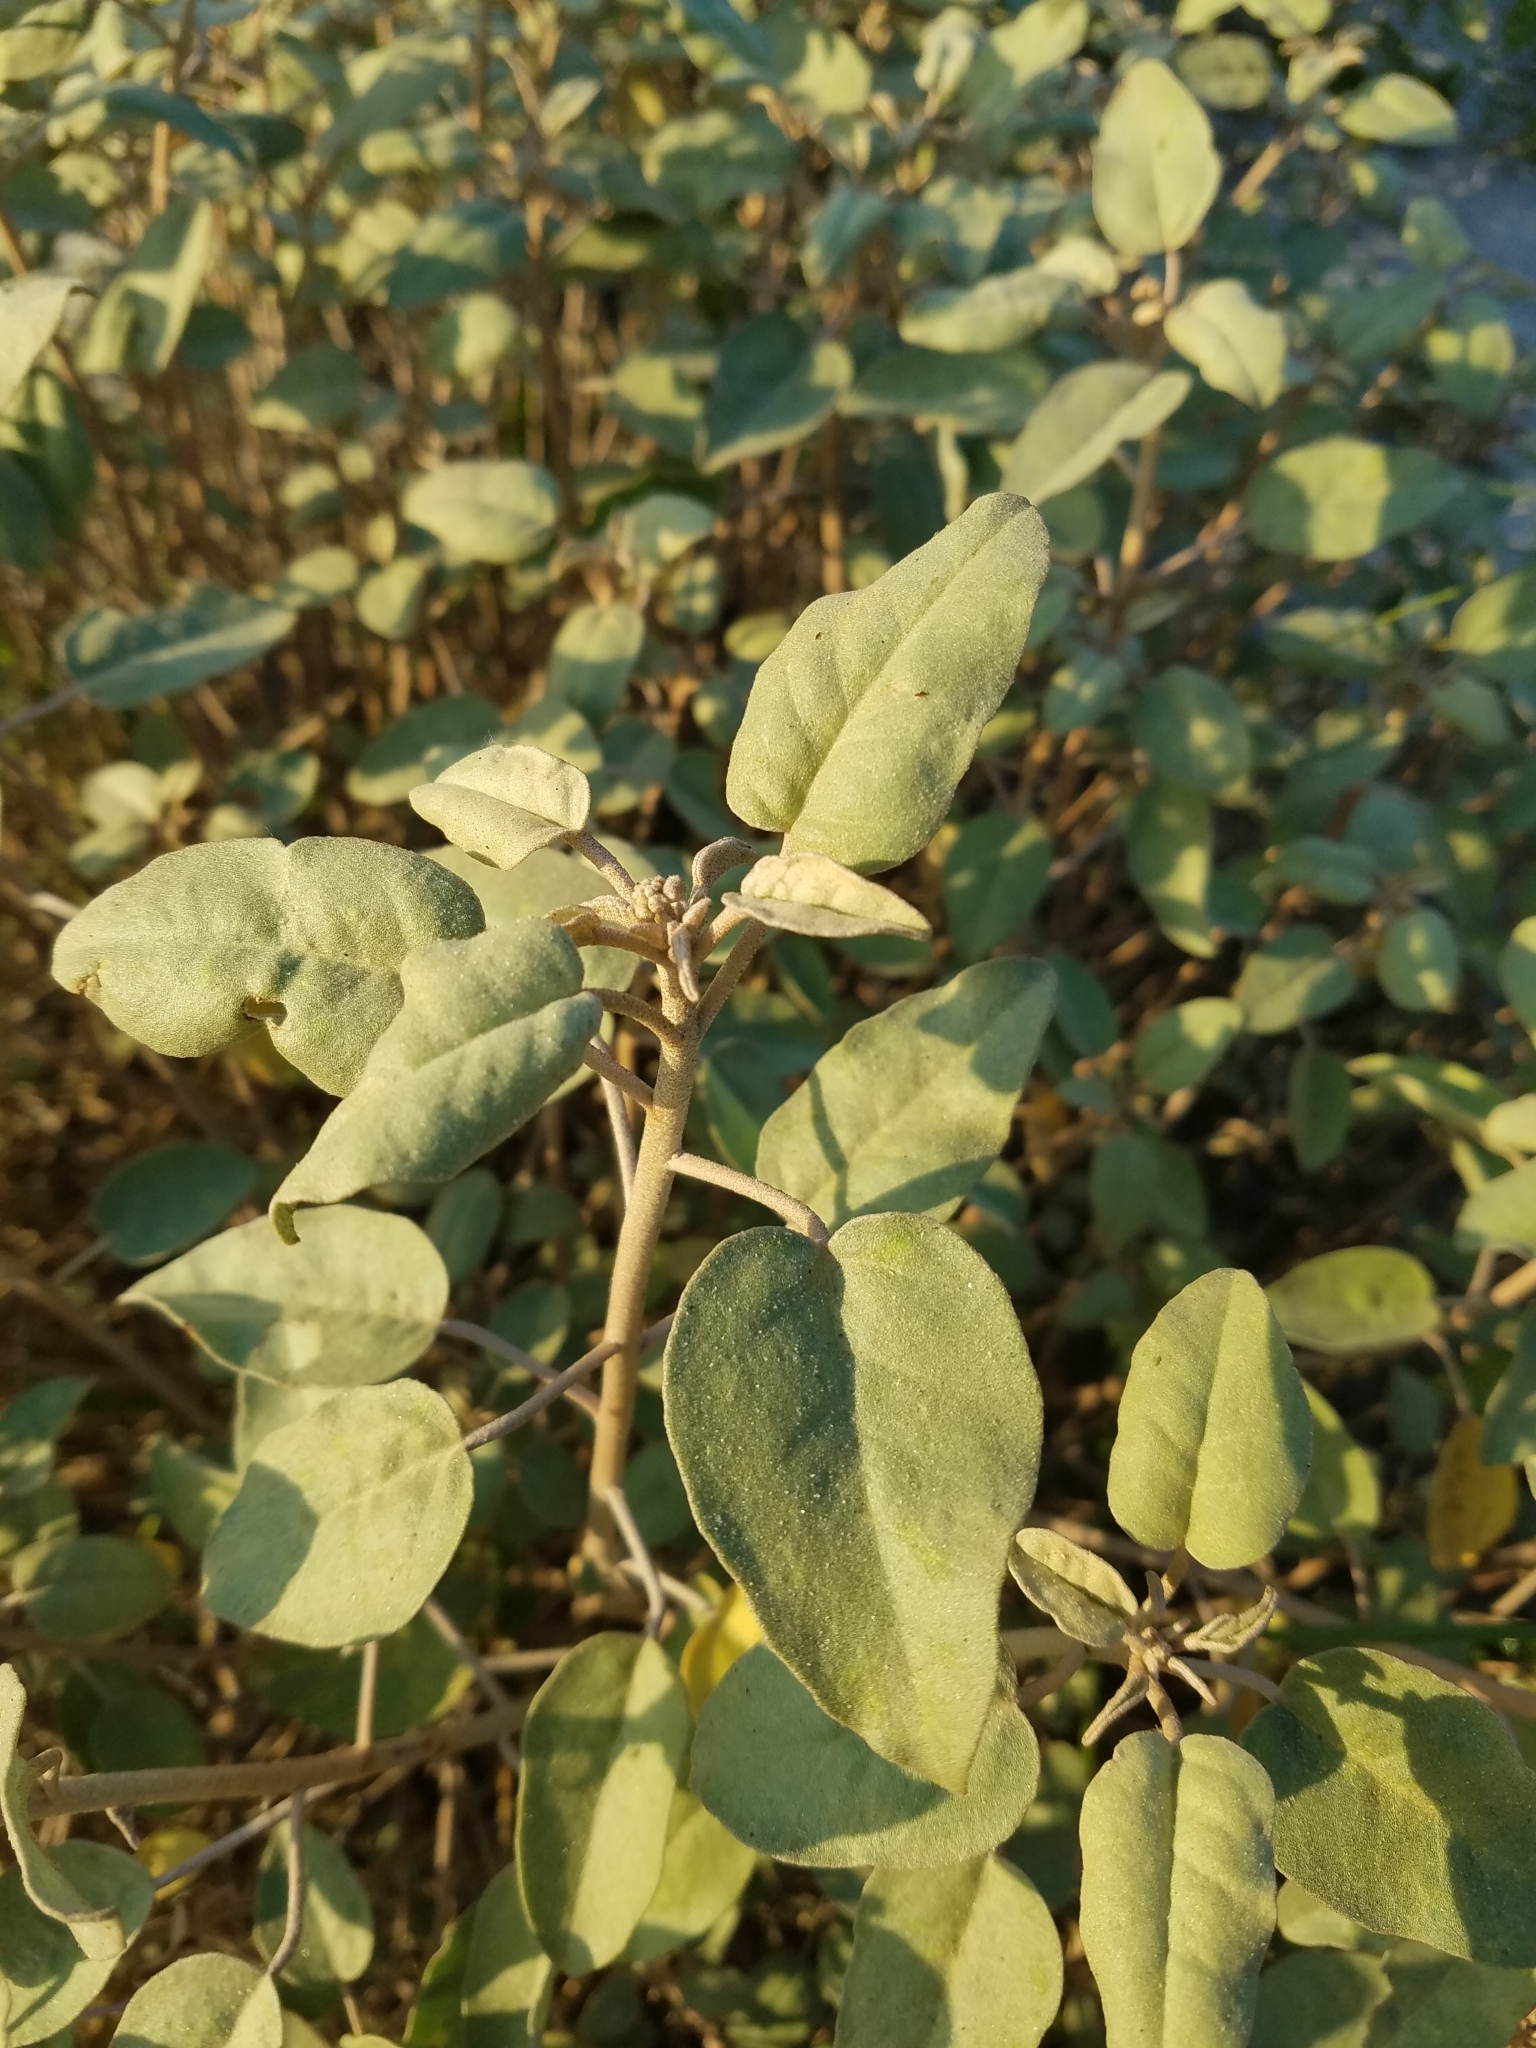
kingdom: Plantae
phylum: Tracheophyta
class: Magnoliopsida
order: Malpighiales
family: Euphorbiaceae
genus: Croton
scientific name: Croton punctatus
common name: Beach-tea
